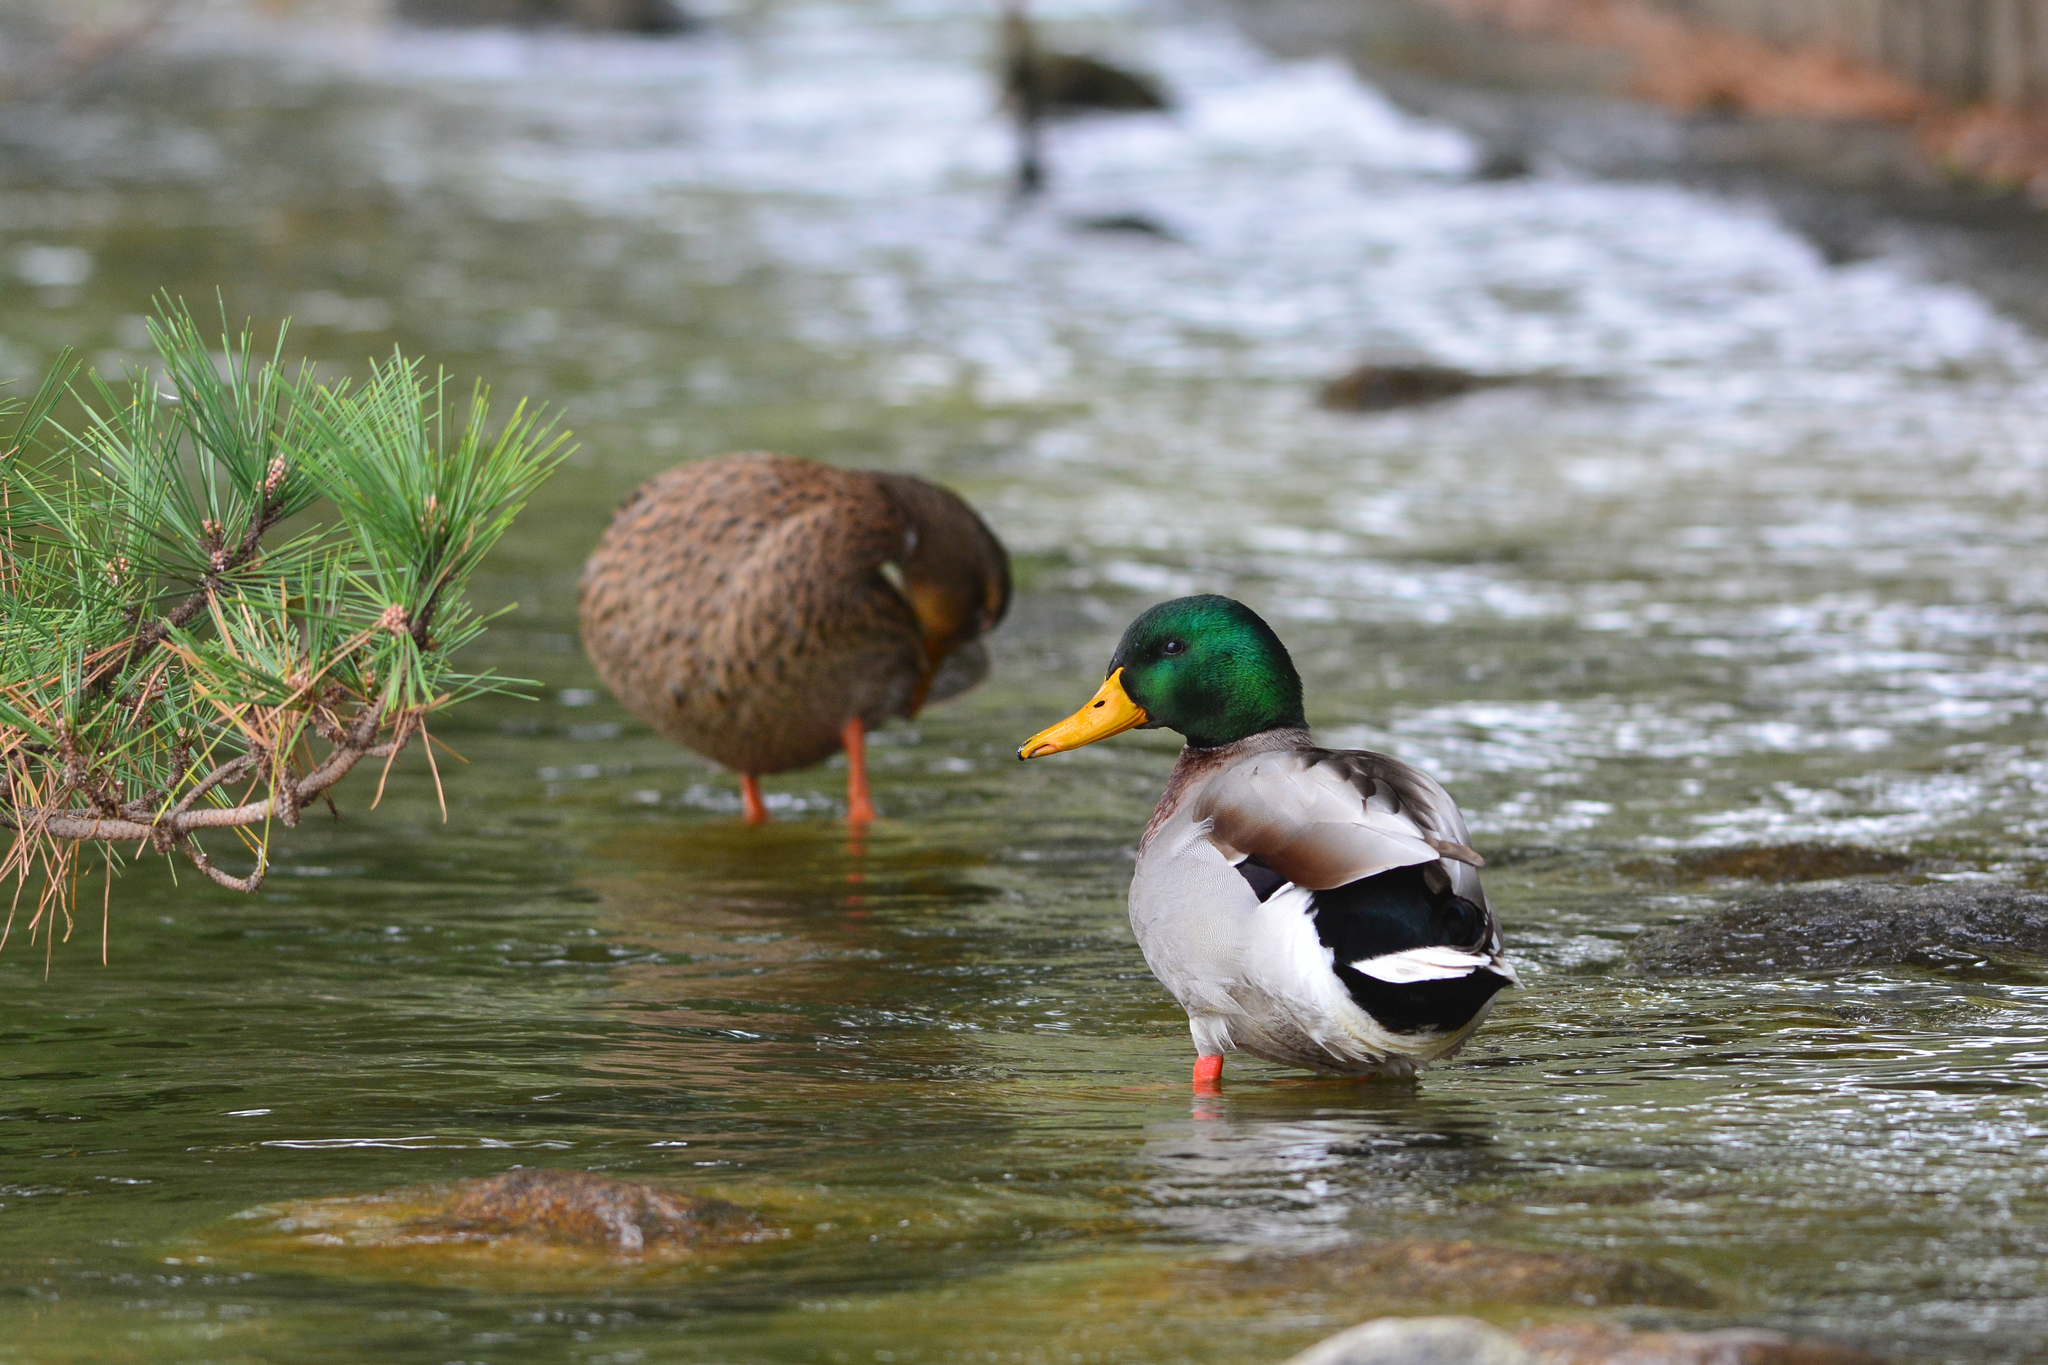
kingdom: Animalia
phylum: Chordata
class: Aves
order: Anseriformes
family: Anatidae
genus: Anas
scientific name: Anas platyrhynchos
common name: Mallard
